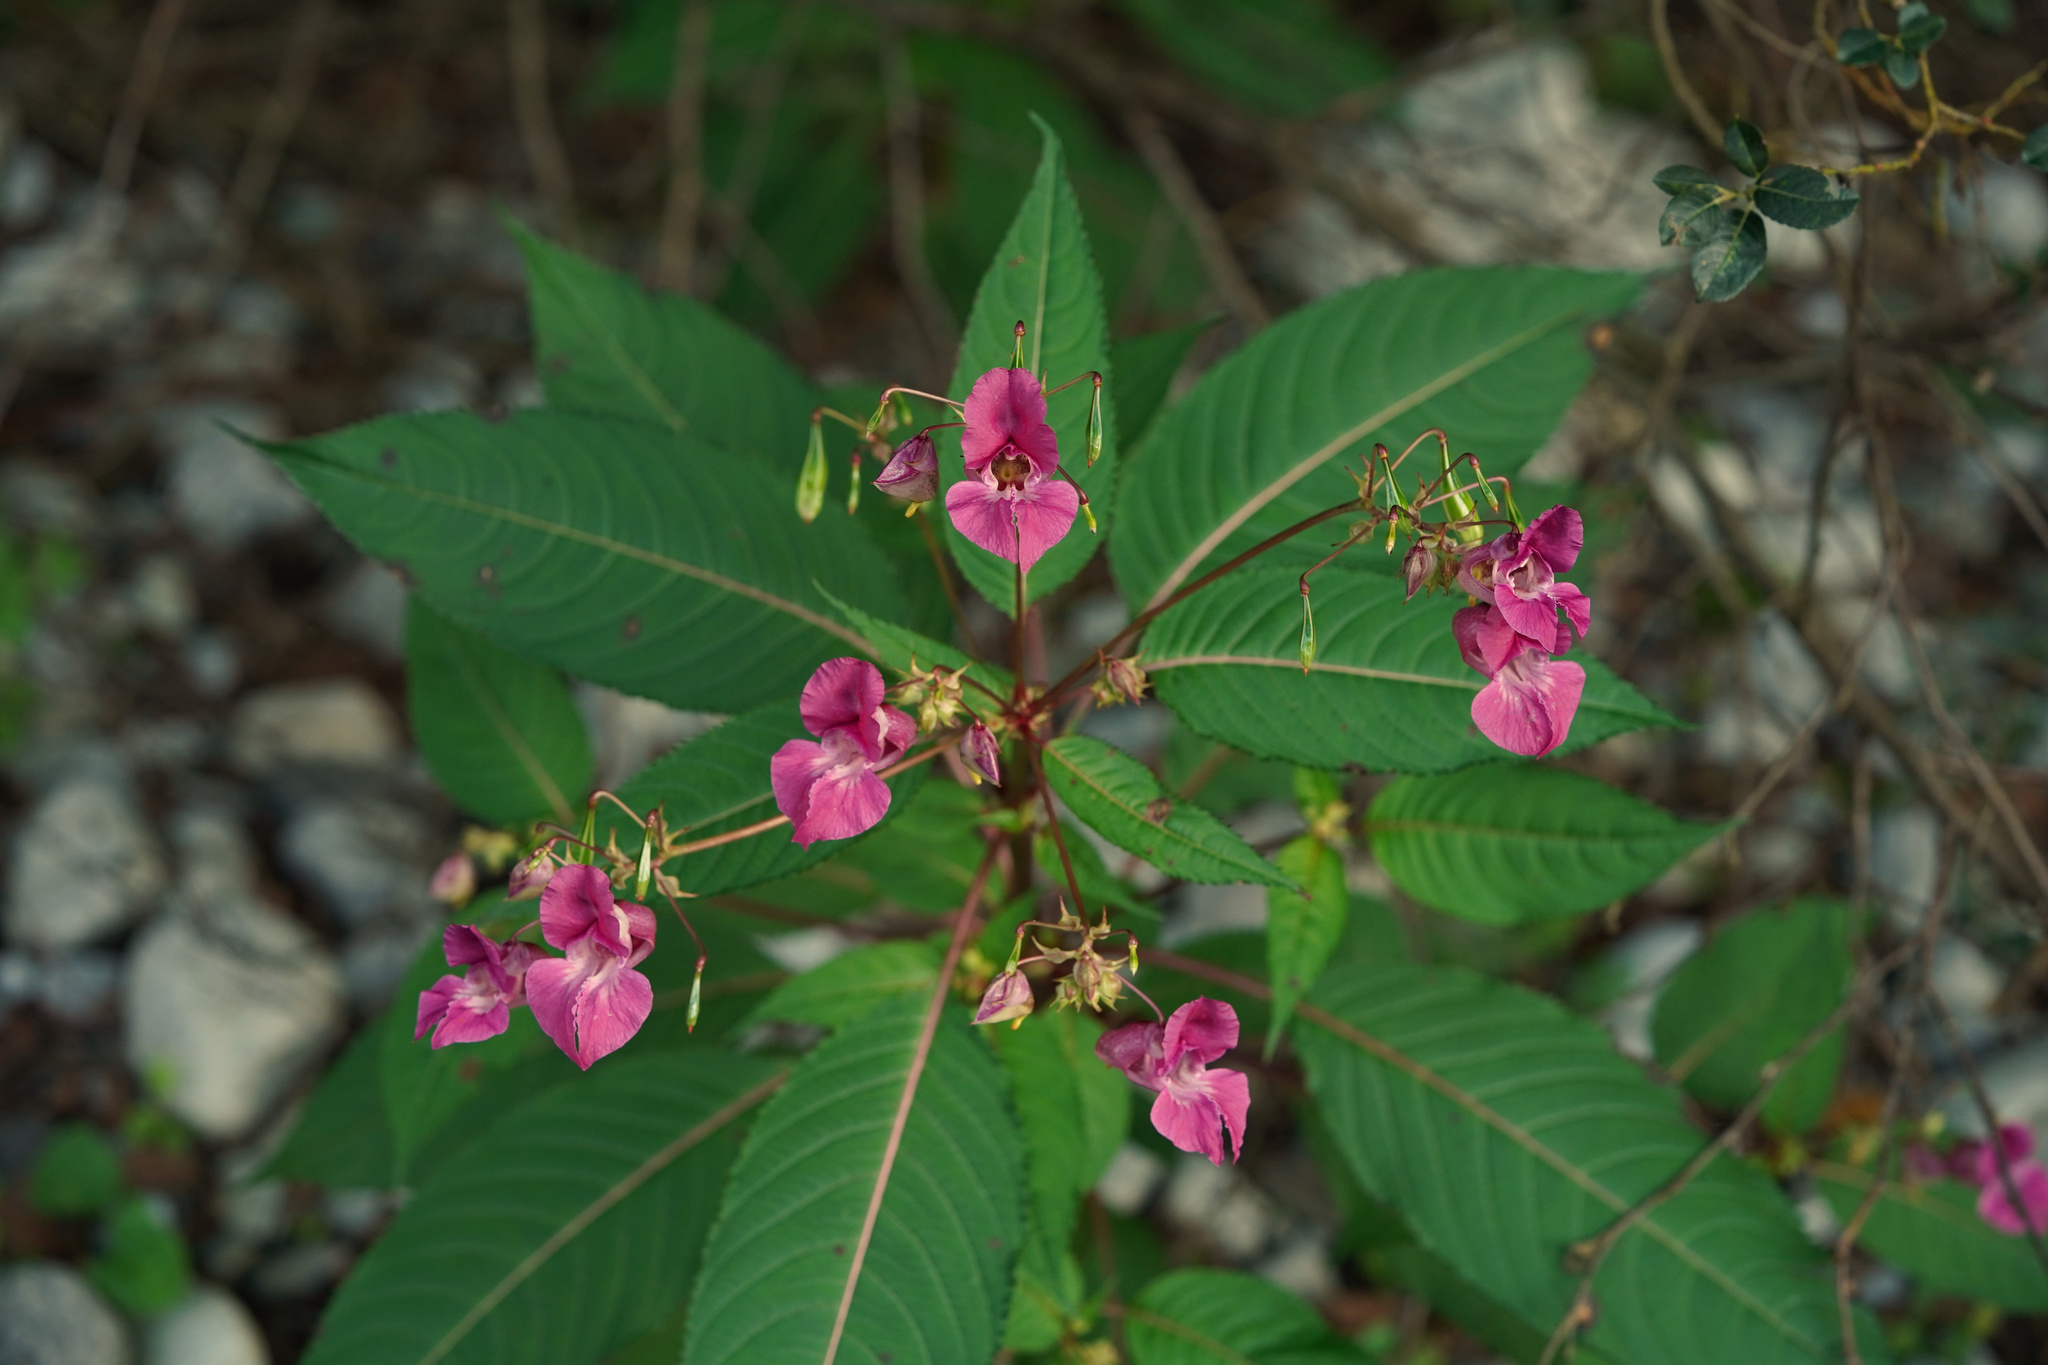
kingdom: Plantae
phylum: Tracheophyta
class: Magnoliopsida
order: Ericales
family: Balsaminaceae
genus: Impatiens
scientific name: Impatiens glandulifera
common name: Himalayan balsam
